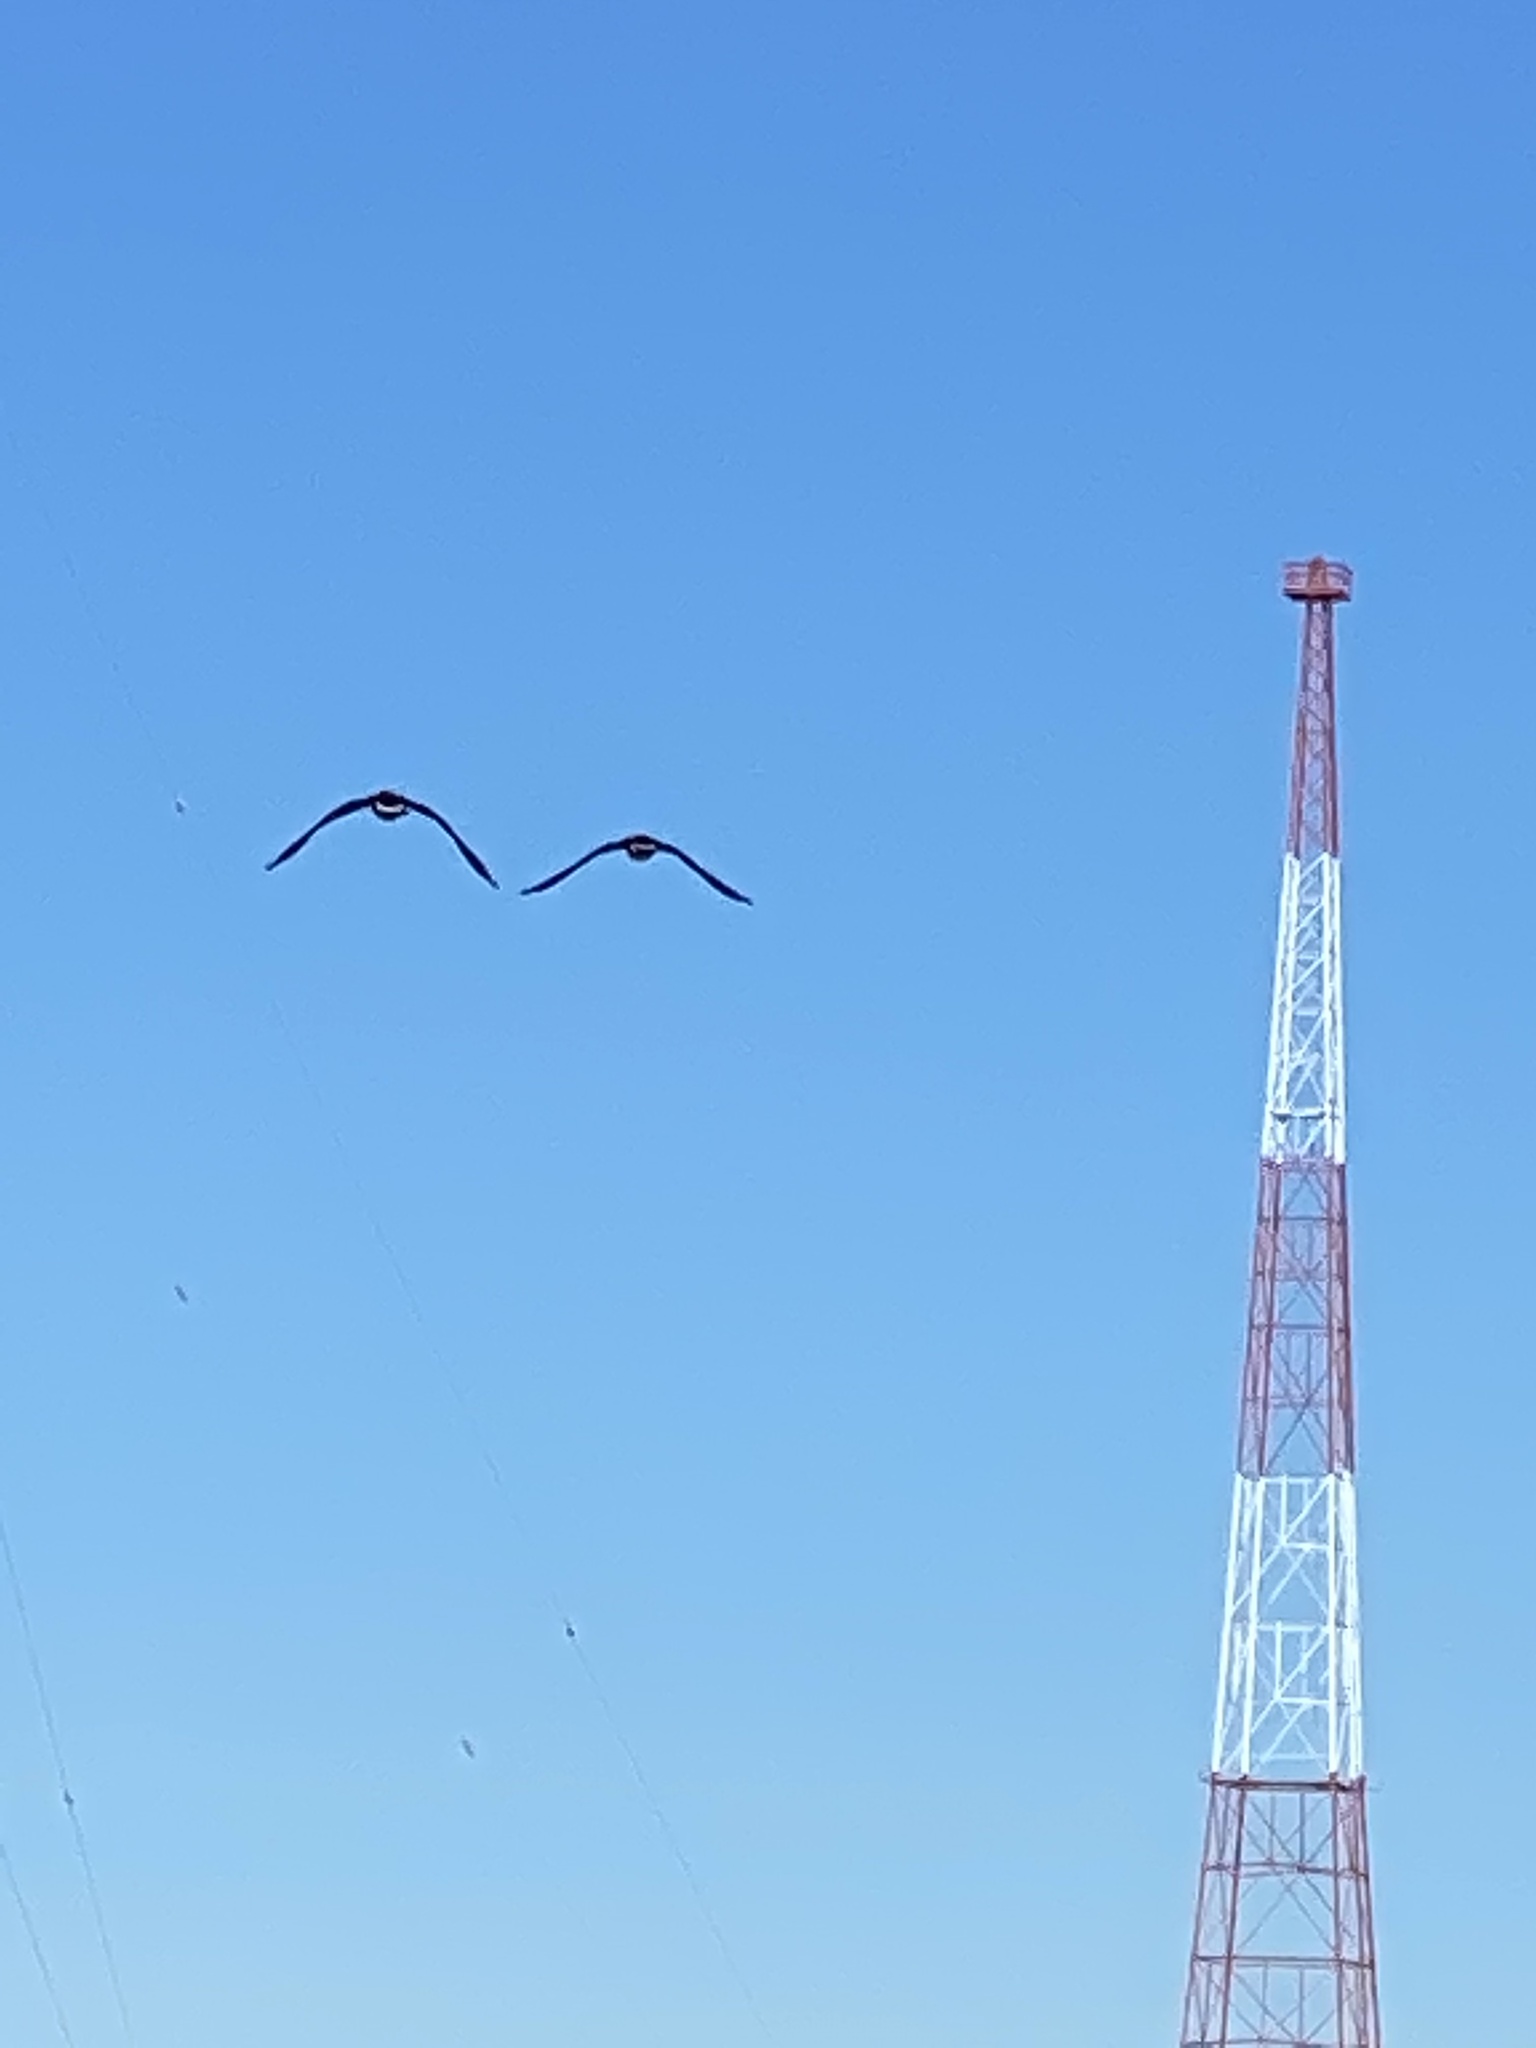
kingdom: Animalia
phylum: Chordata
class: Aves
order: Anseriformes
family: Anatidae
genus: Branta
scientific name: Branta canadensis
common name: Canada goose
